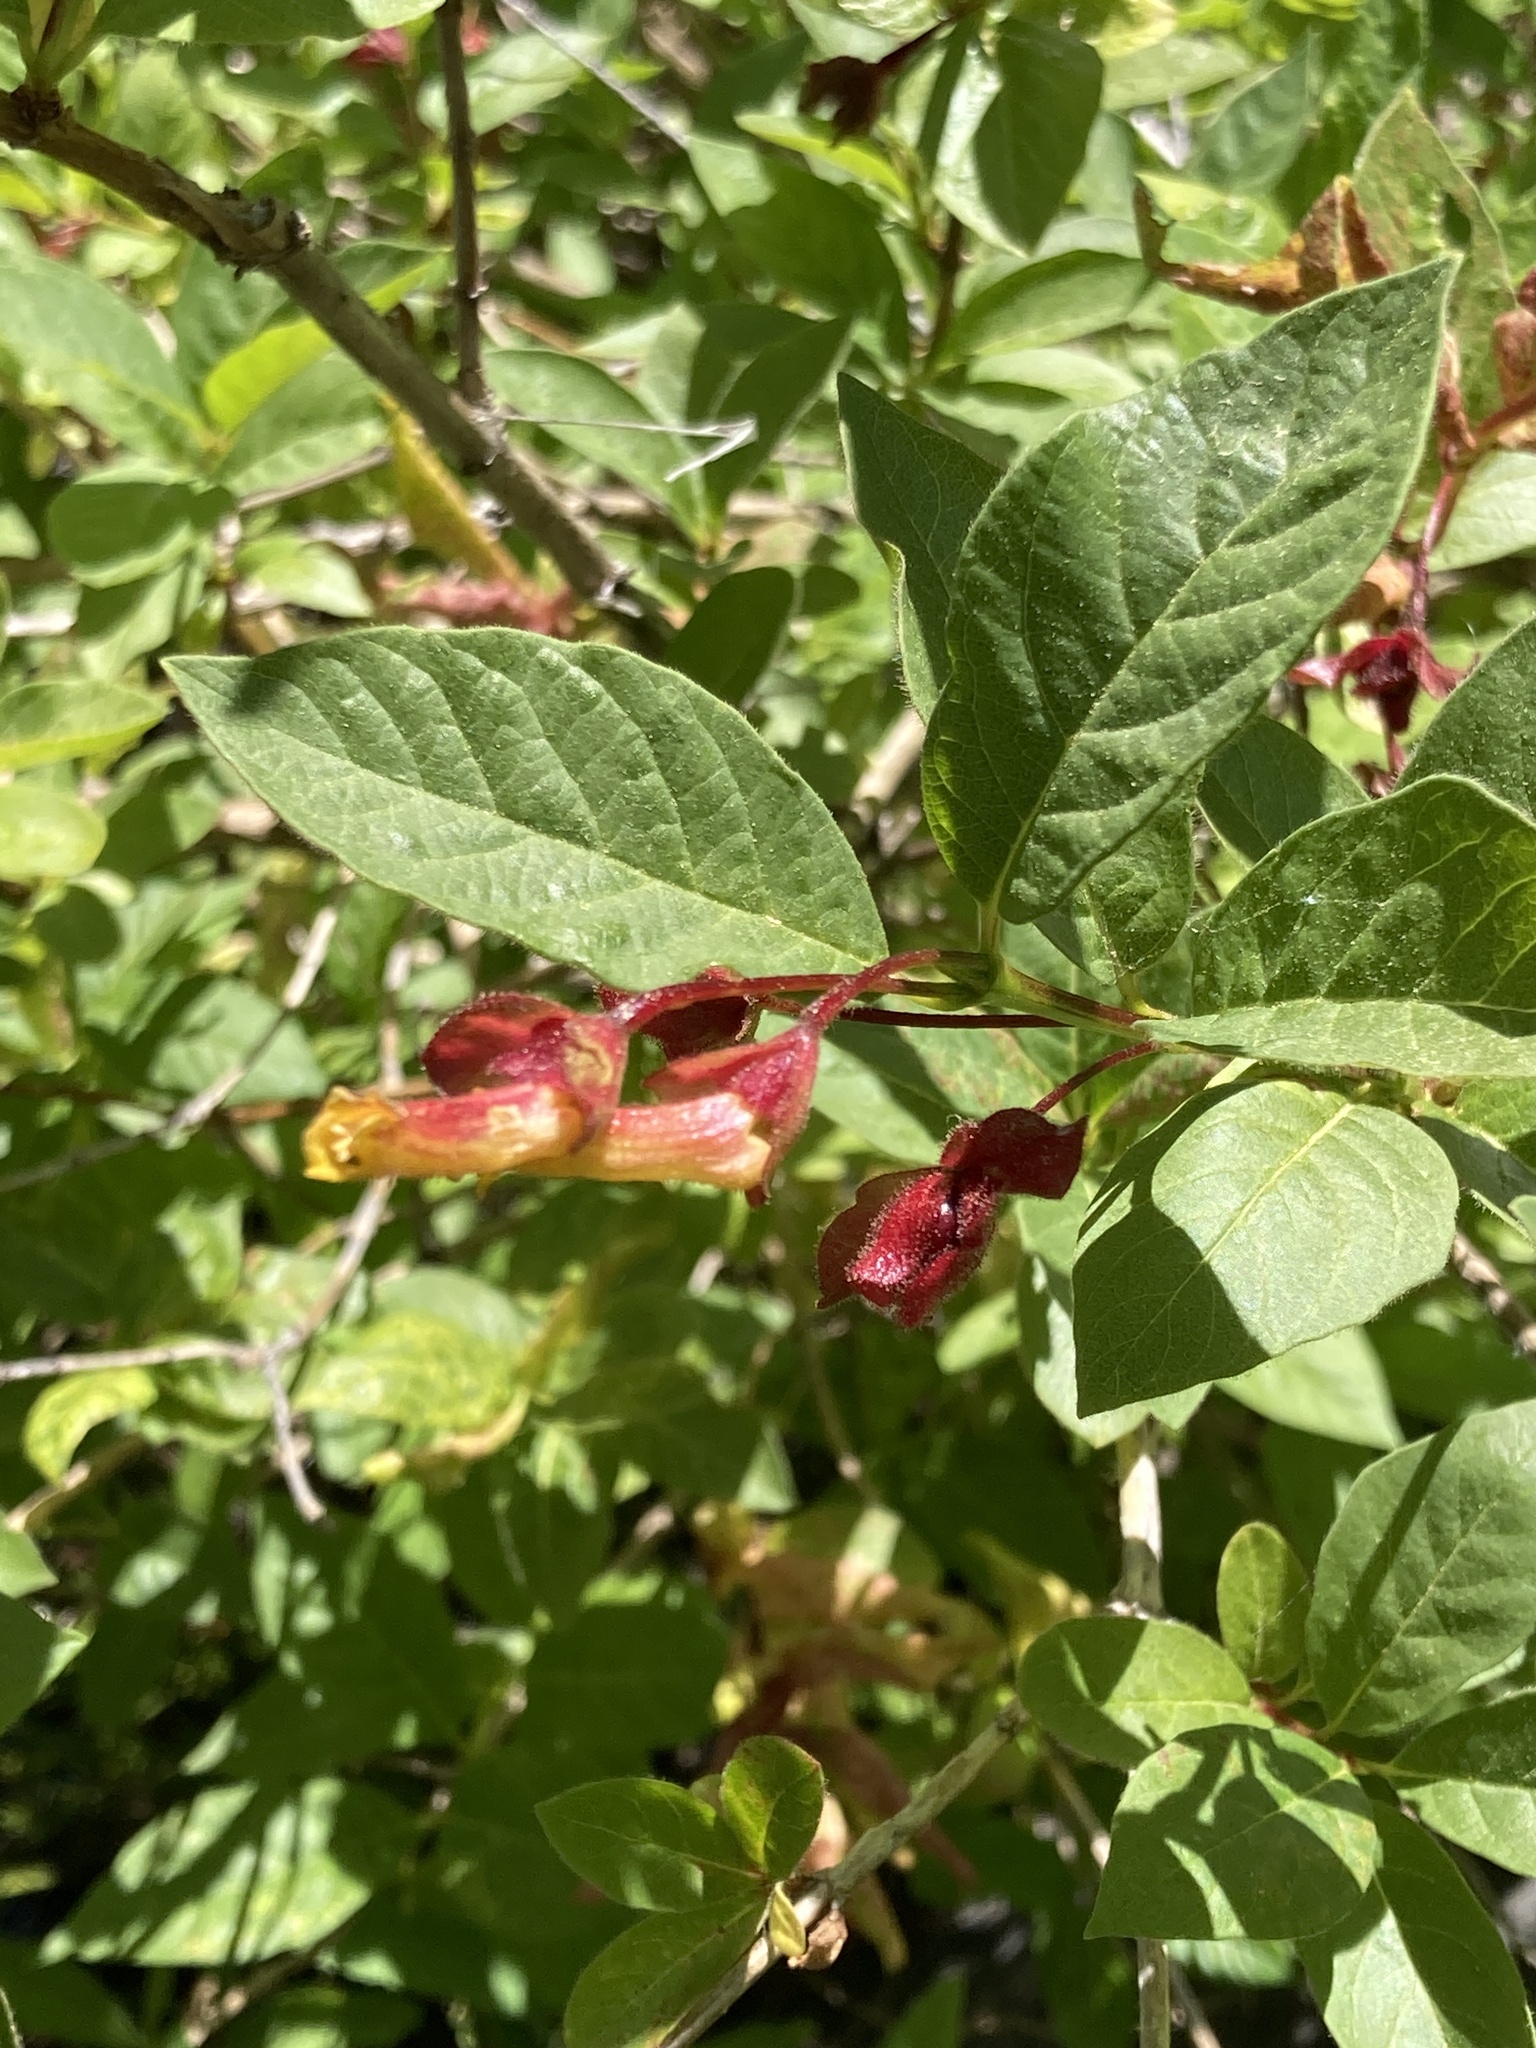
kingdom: Plantae
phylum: Tracheophyta
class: Magnoliopsida
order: Dipsacales
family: Caprifoliaceae
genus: Lonicera
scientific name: Lonicera involucrata
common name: Californian honeysuckle
